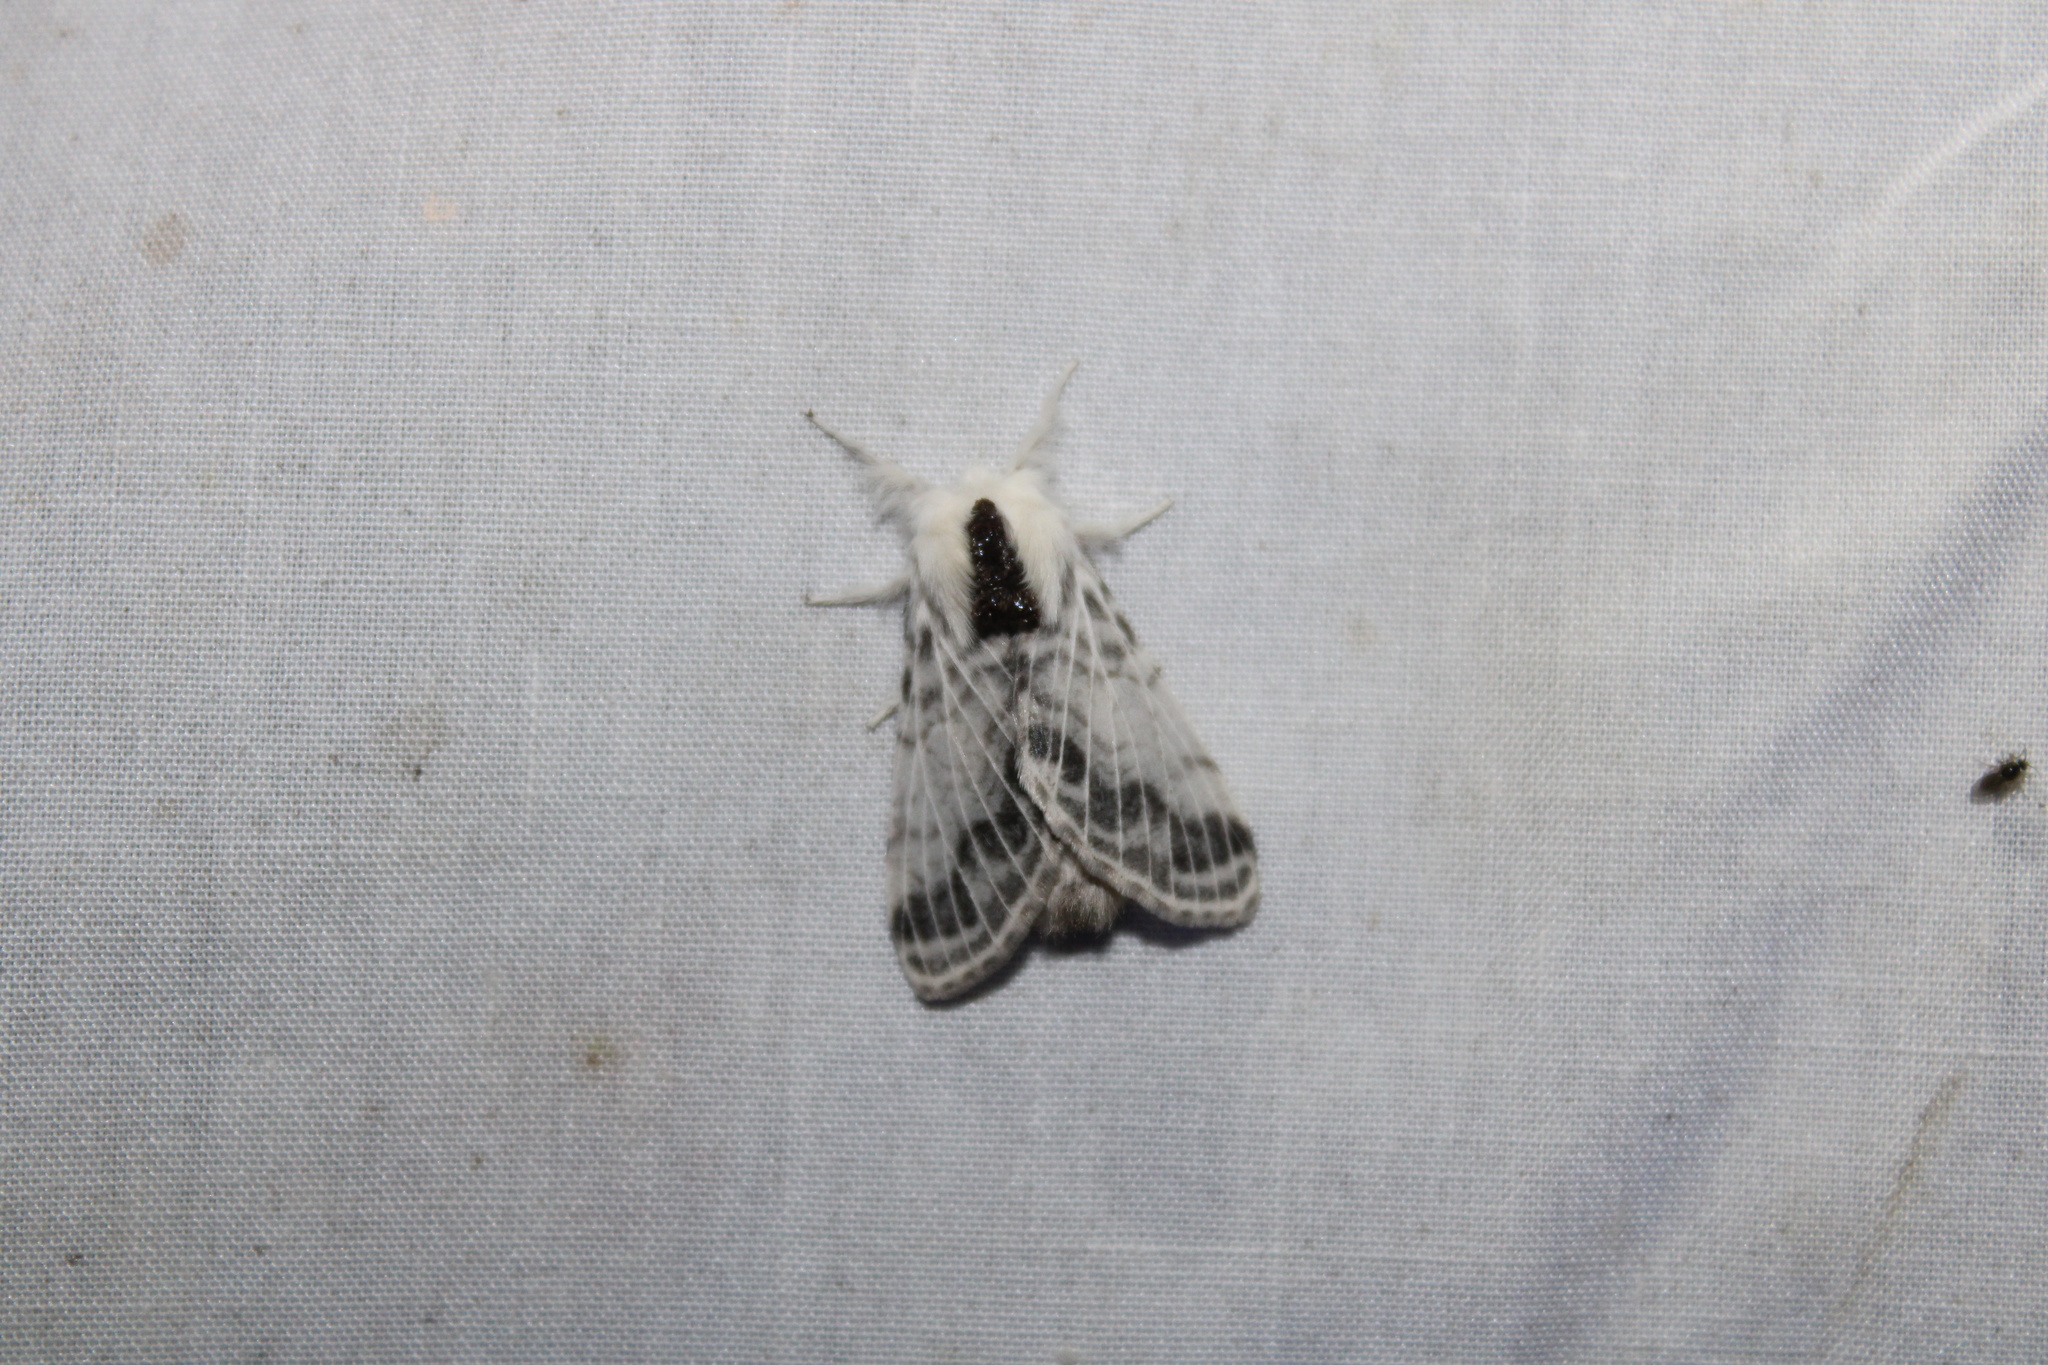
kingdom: Animalia
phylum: Arthropoda
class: Insecta
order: Lepidoptera
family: Lasiocampidae
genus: Tolype
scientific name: Tolype velleda
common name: Large tolype moth
